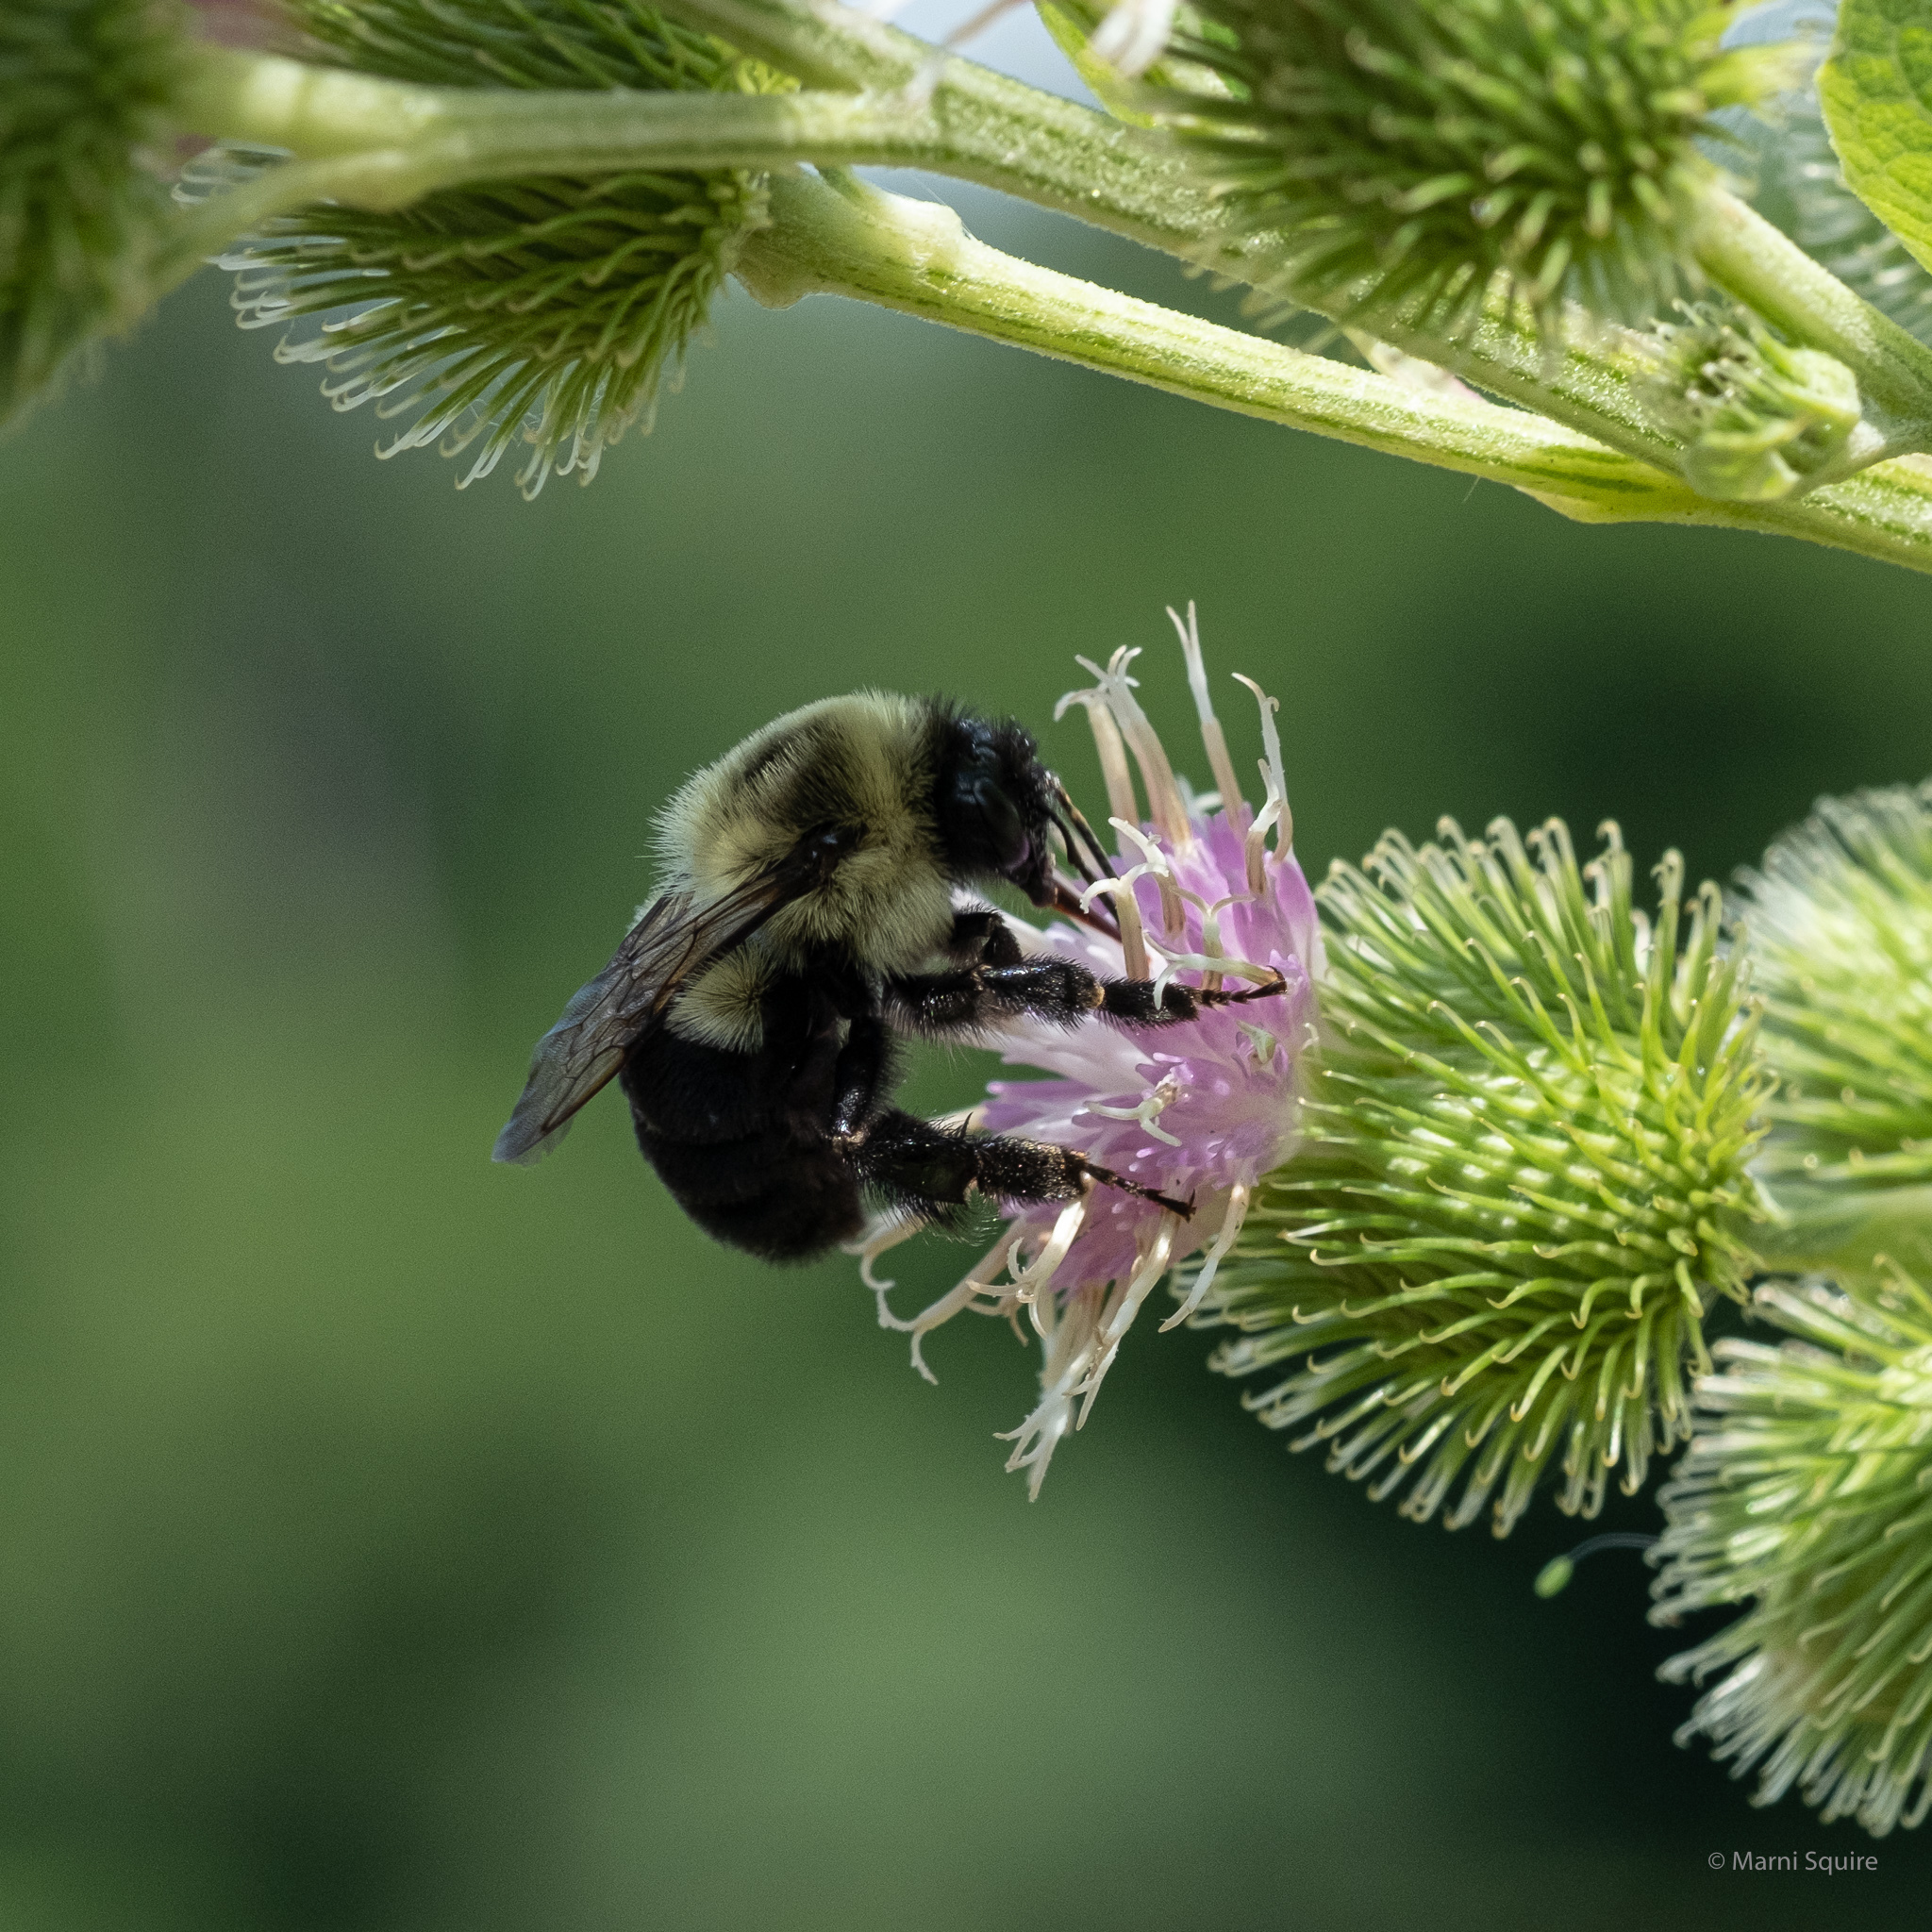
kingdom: Animalia
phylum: Arthropoda
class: Insecta
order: Hymenoptera
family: Apidae
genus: Bombus
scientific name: Bombus impatiens
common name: Common eastern bumble bee
